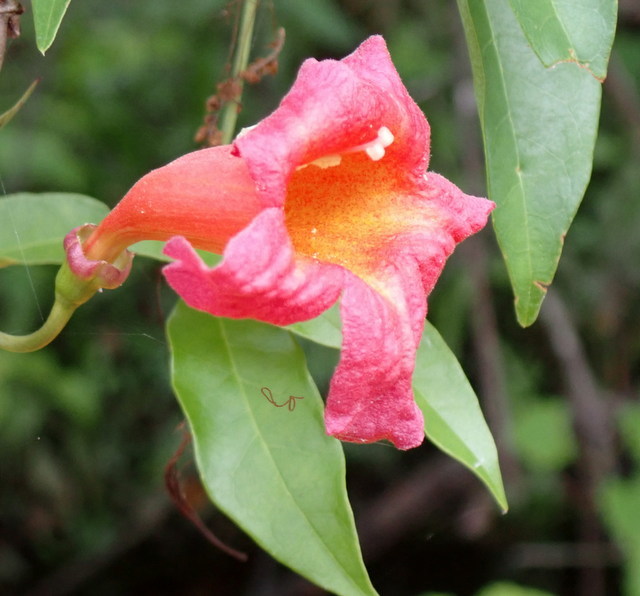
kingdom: Plantae
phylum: Tracheophyta
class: Magnoliopsida
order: Lamiales
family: Bignoniaceae
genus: Bignonia
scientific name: Bignonia capreolata
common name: Crossvine
